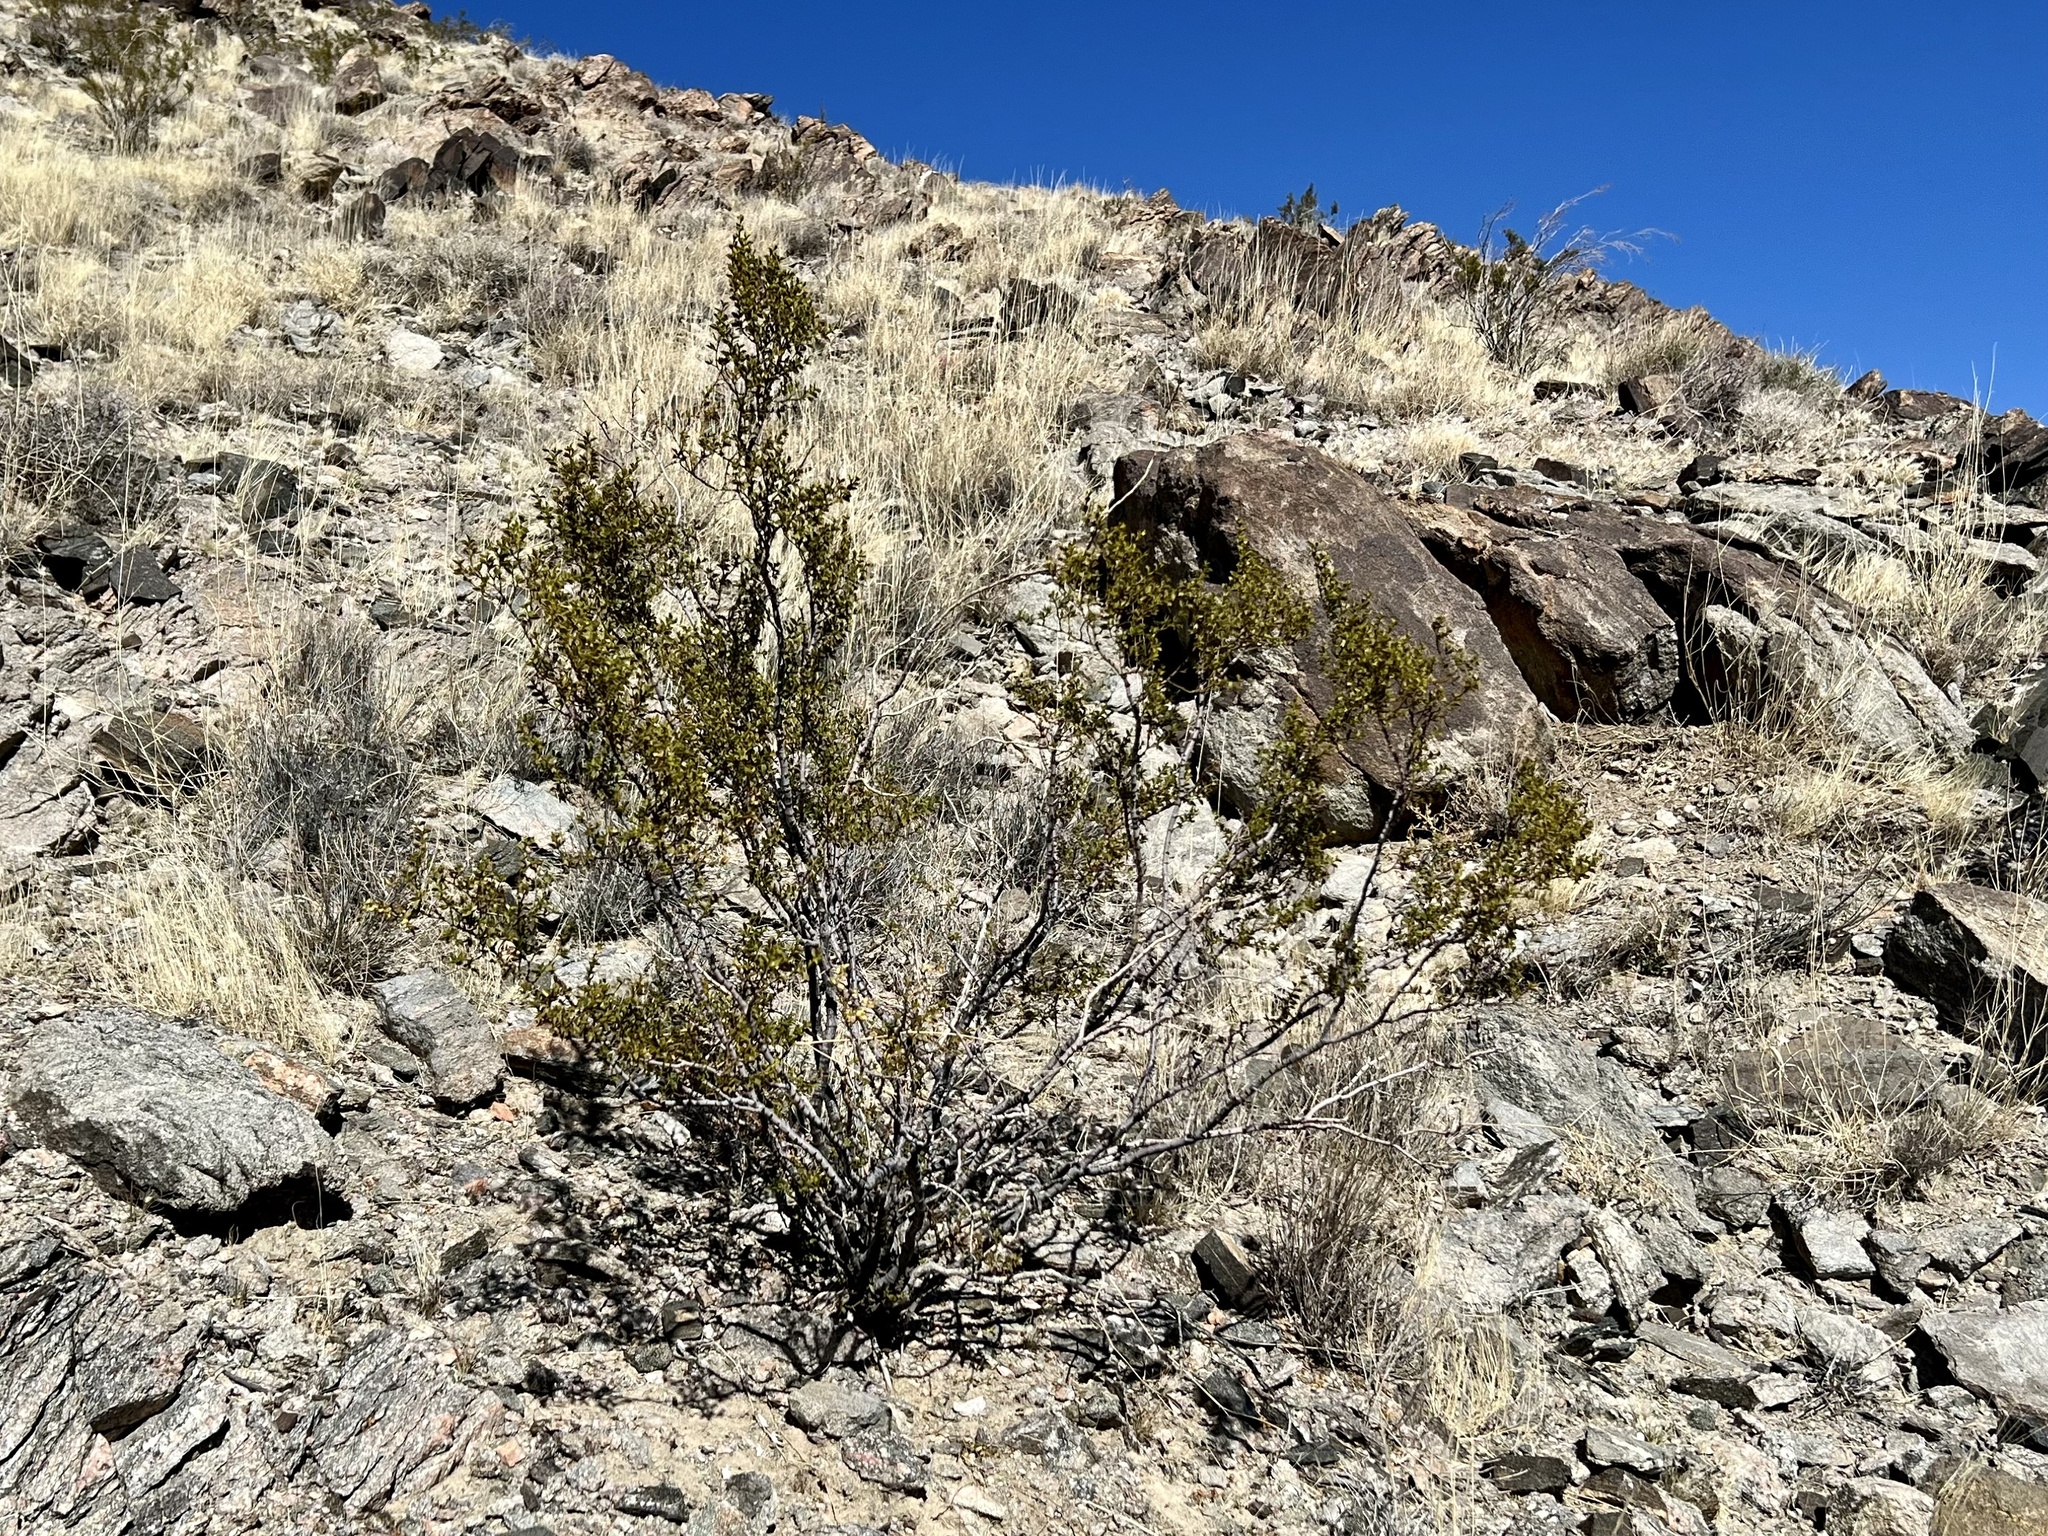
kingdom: Plantae
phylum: Tracheophyta
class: Magnoliopsida
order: Zygophyllales
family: Zygophyllaceae
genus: Larrea
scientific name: Larrea tridentata
